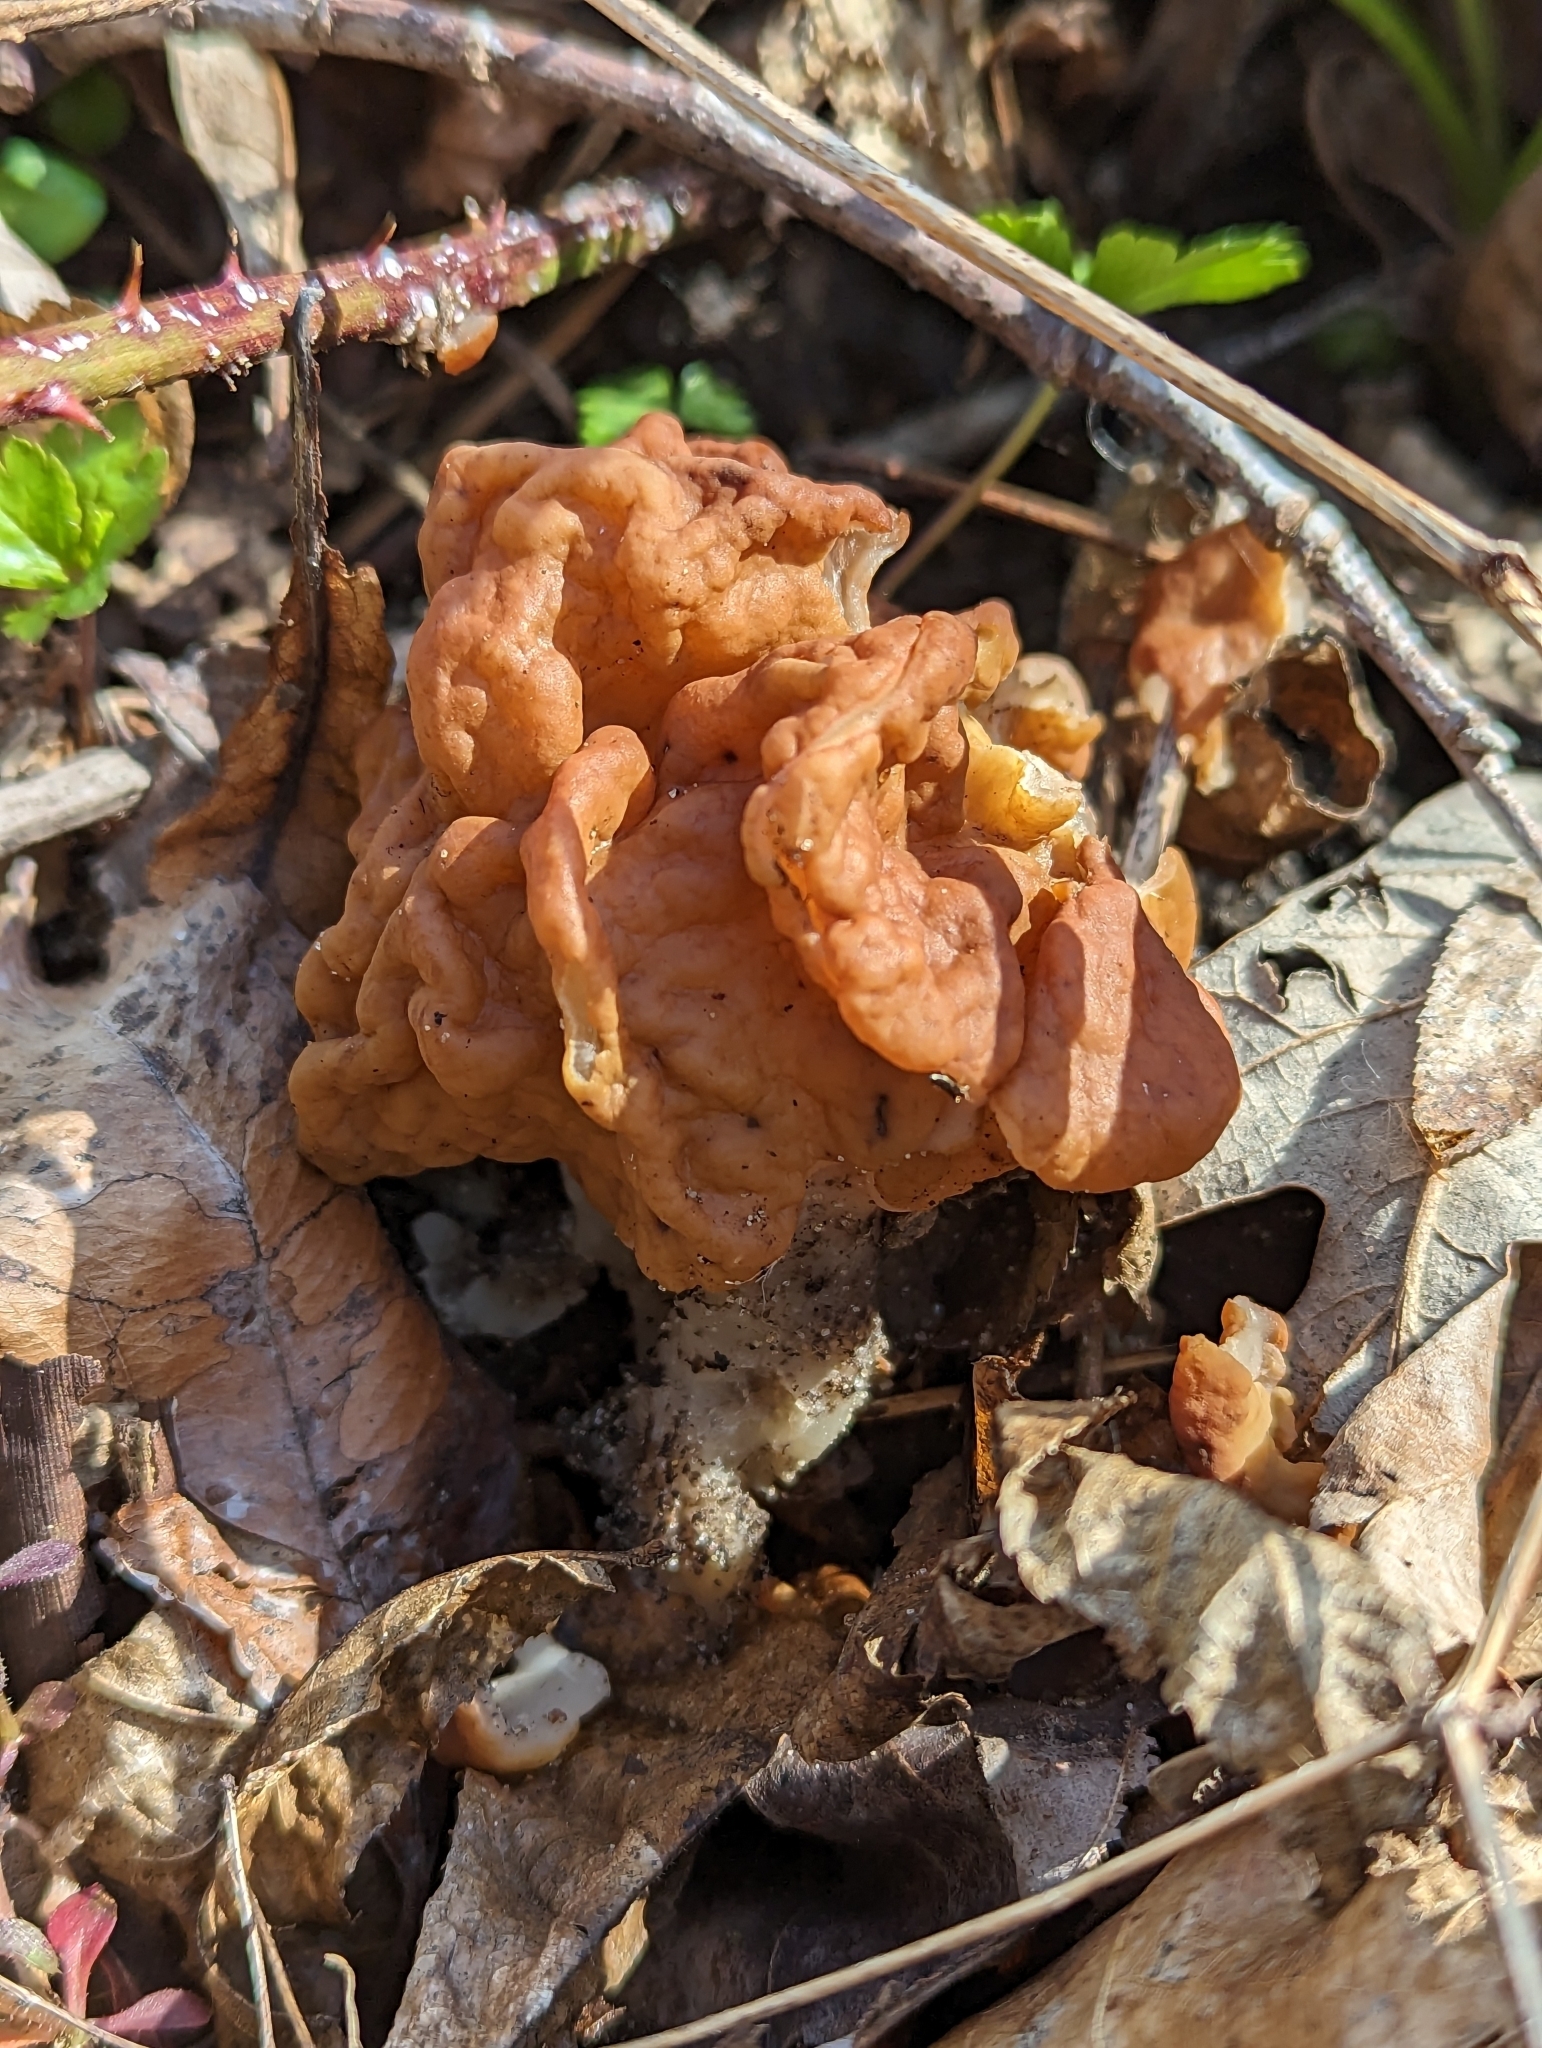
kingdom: Fungi
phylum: Ascomycota
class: Pezizomycetes
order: Pezizales
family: Discinaceae
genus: Gyromitra
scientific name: Gyromitra korfii
